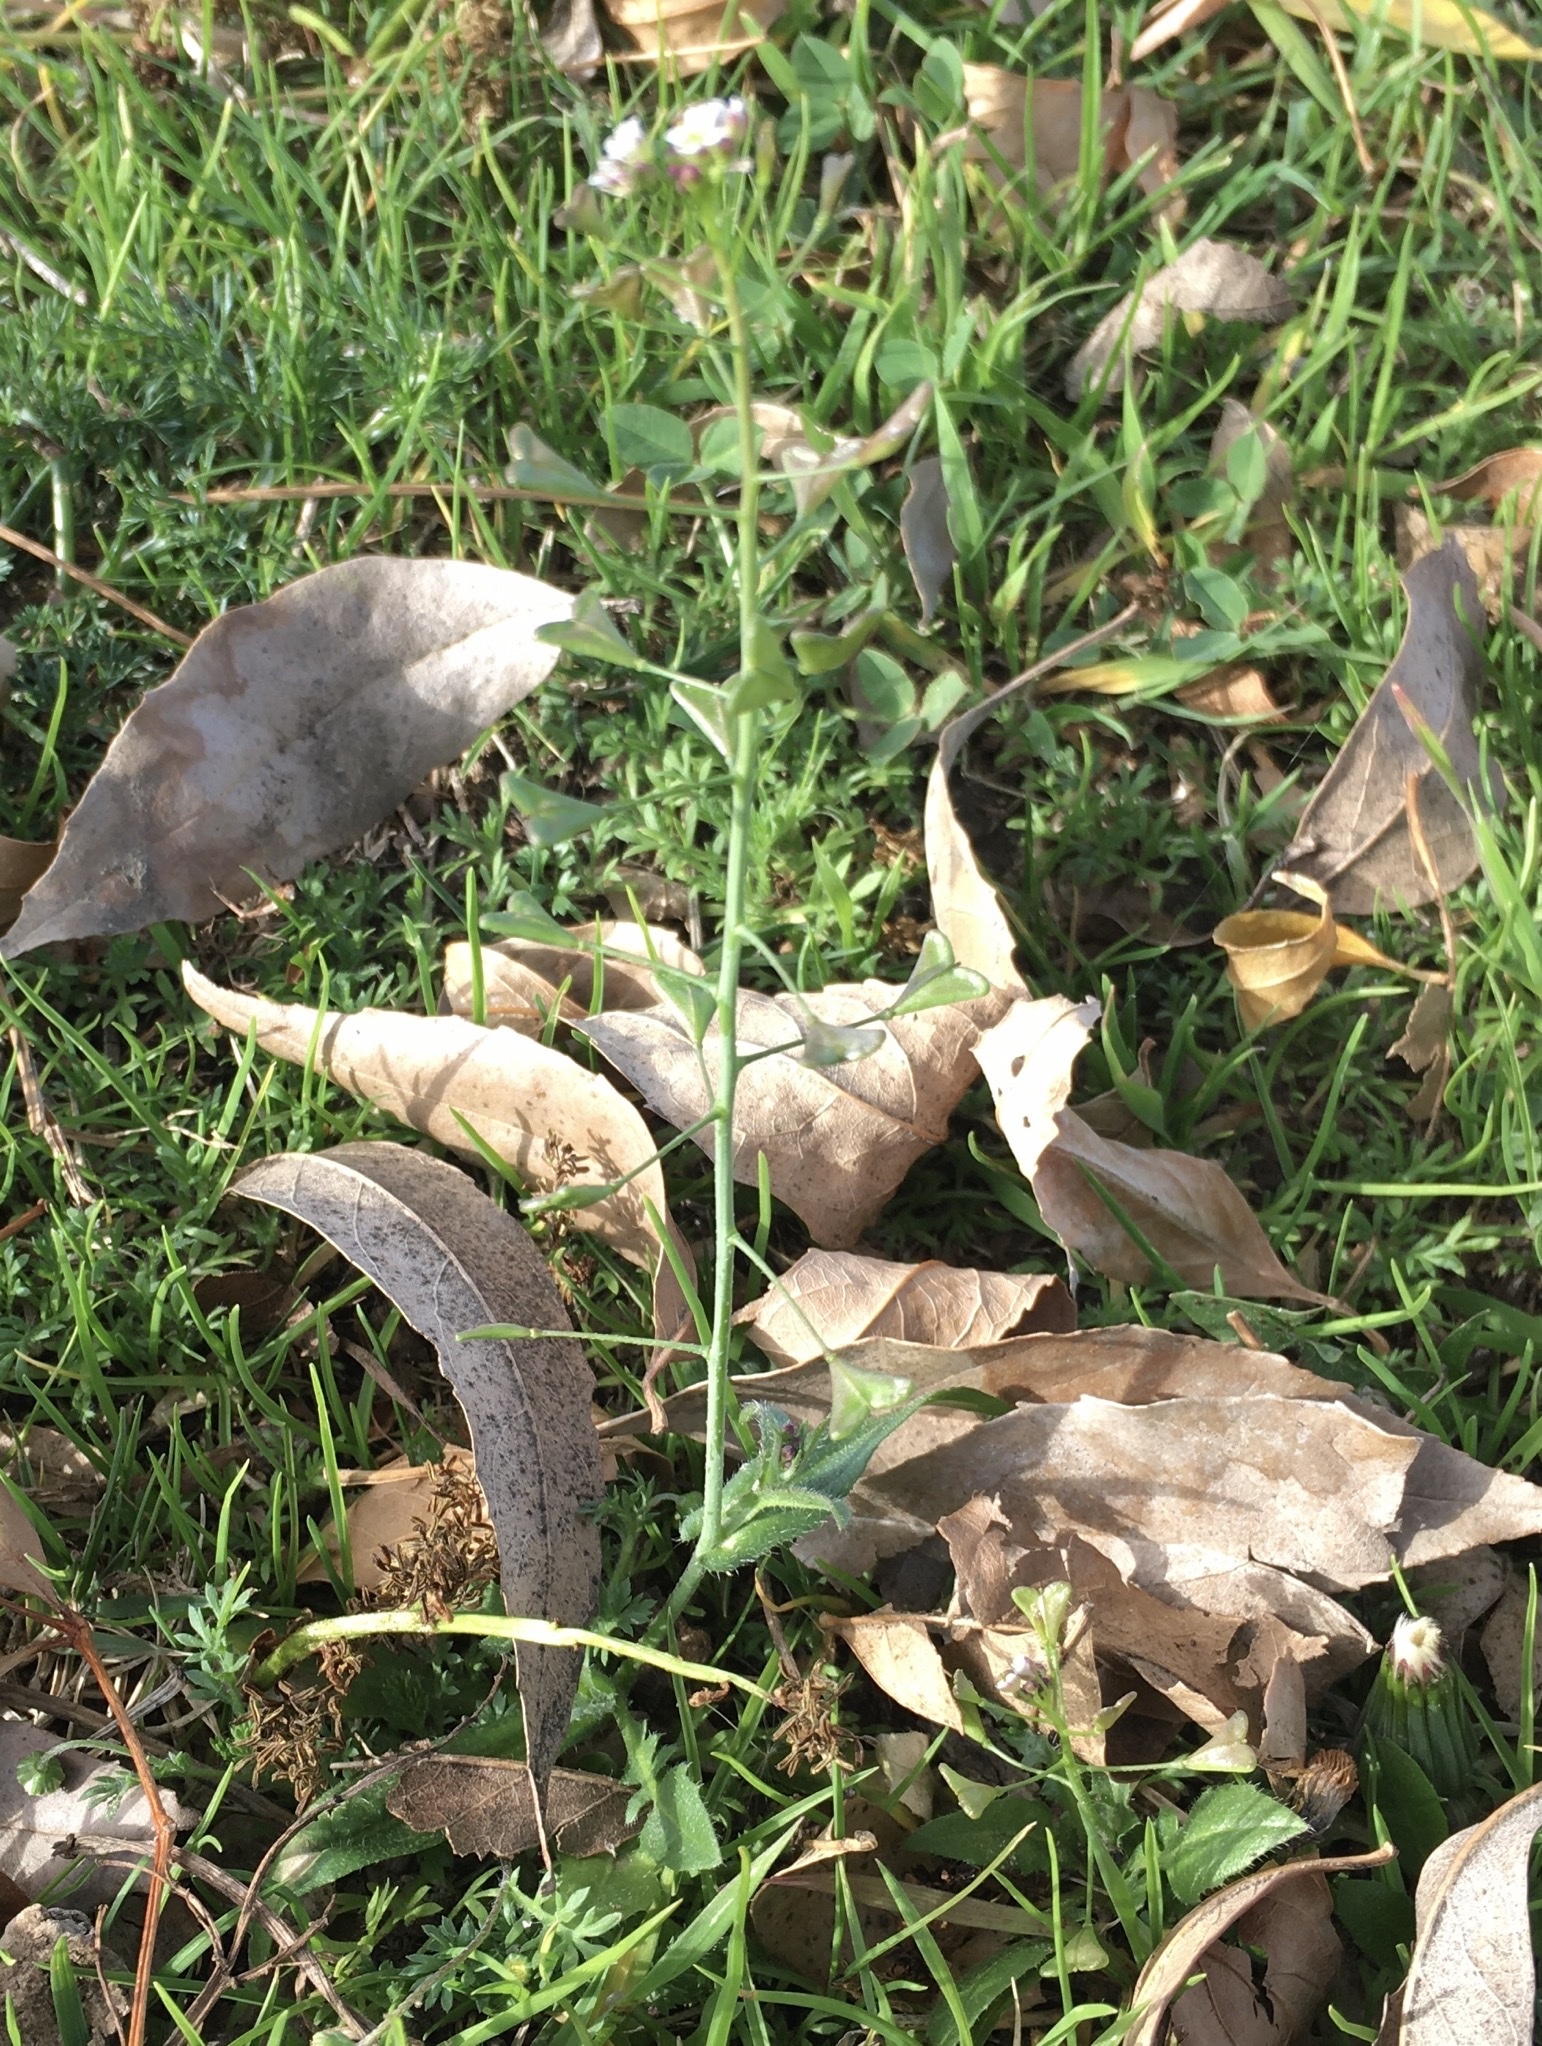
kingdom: Plantae
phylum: Tracheophyta
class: Magnoliopsida
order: Brassicales
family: Brassicaceae
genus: Capsella
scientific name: Capsella bursa-pastoris
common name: Shepherd's purse
